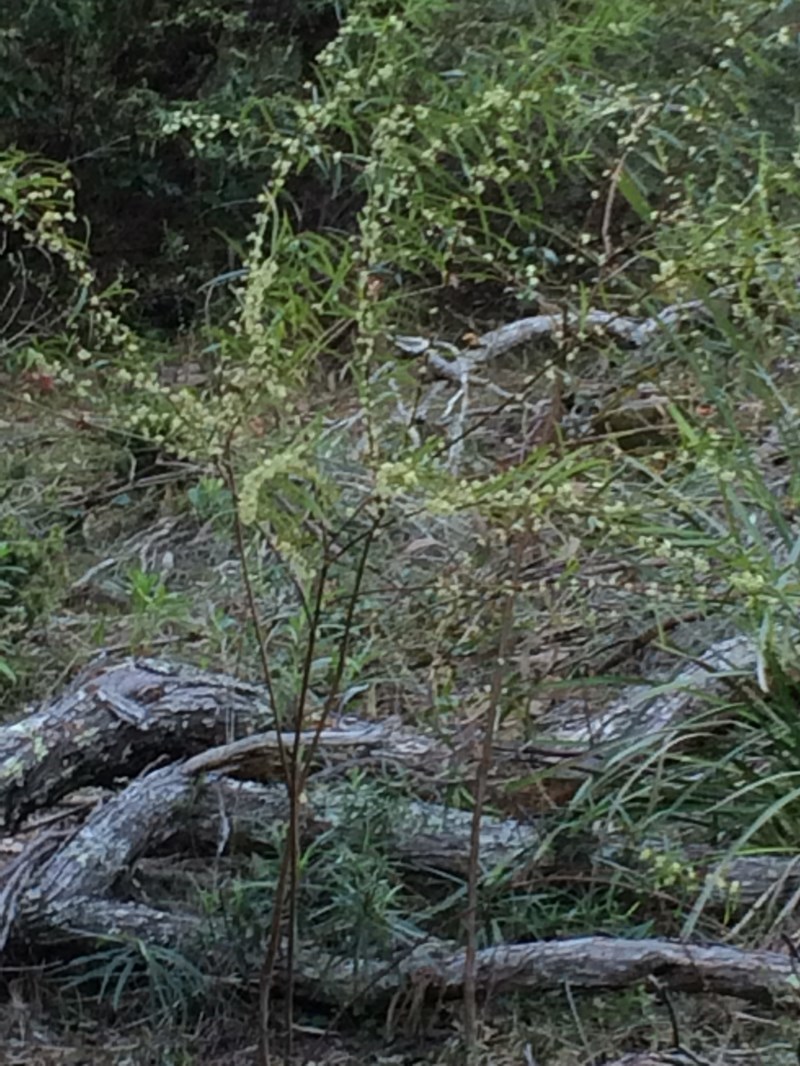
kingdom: Plantae
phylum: Tracheophyta
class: Magnoliopsida
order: Malvales
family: Thymelaeaceae
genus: Pimelea
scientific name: Pimelea axiflora
